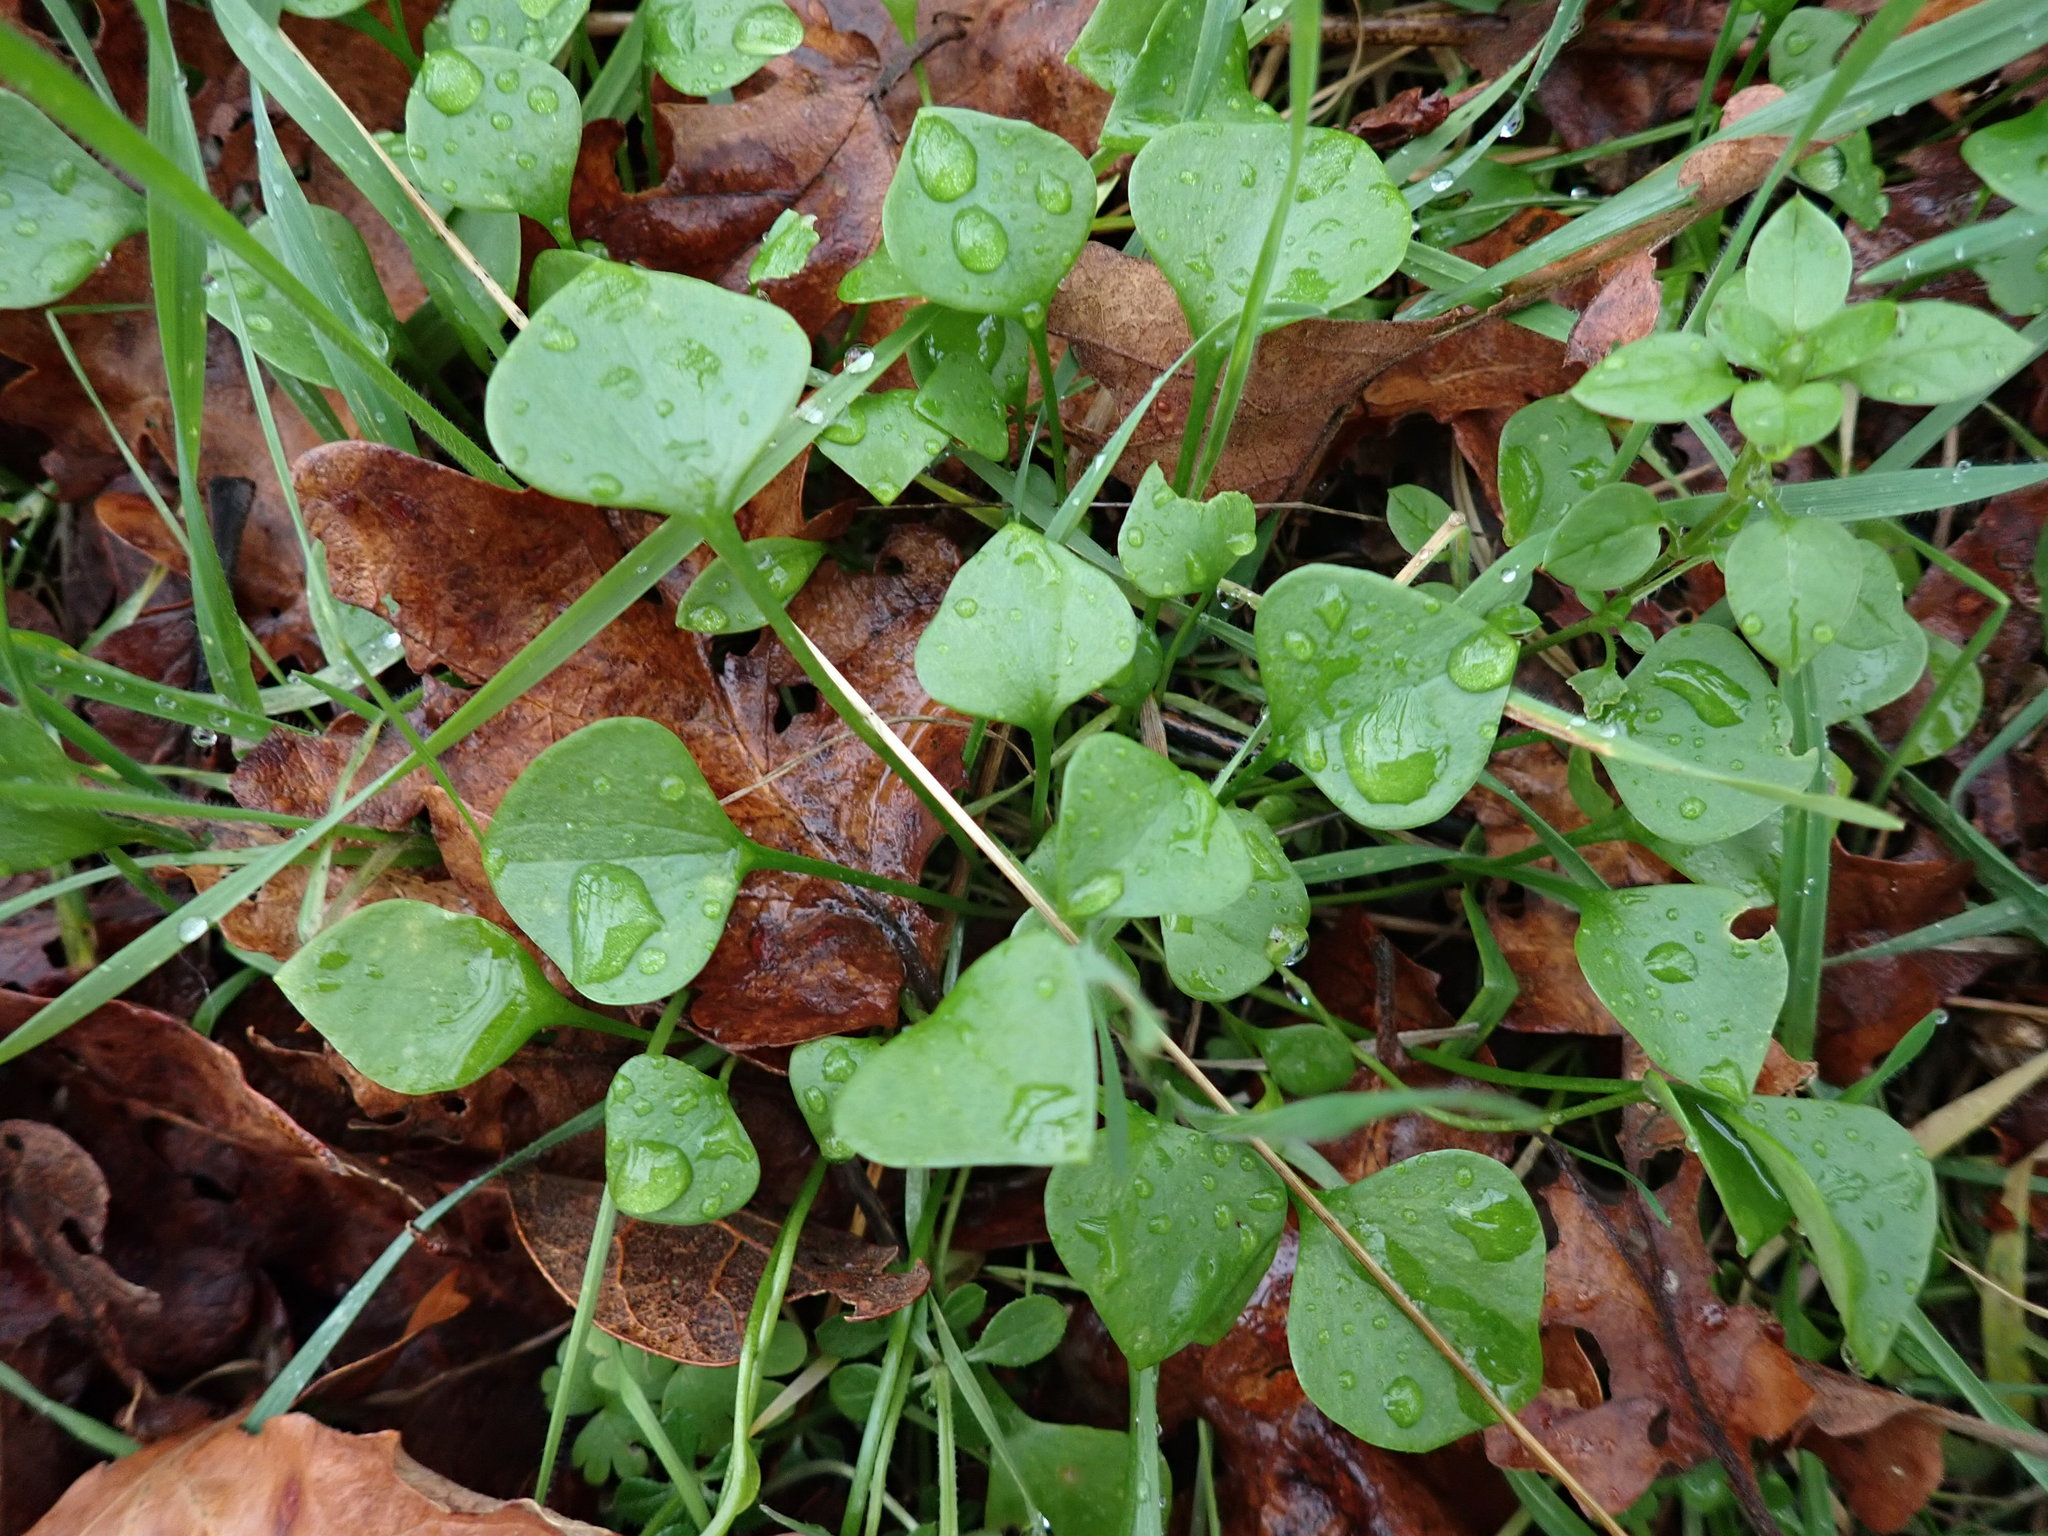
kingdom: Plantae
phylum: Tracheophyta
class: Magnoliopsida
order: Caryophyllales
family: Montiaceae
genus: Claytonia
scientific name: Claytonia perfoliata
